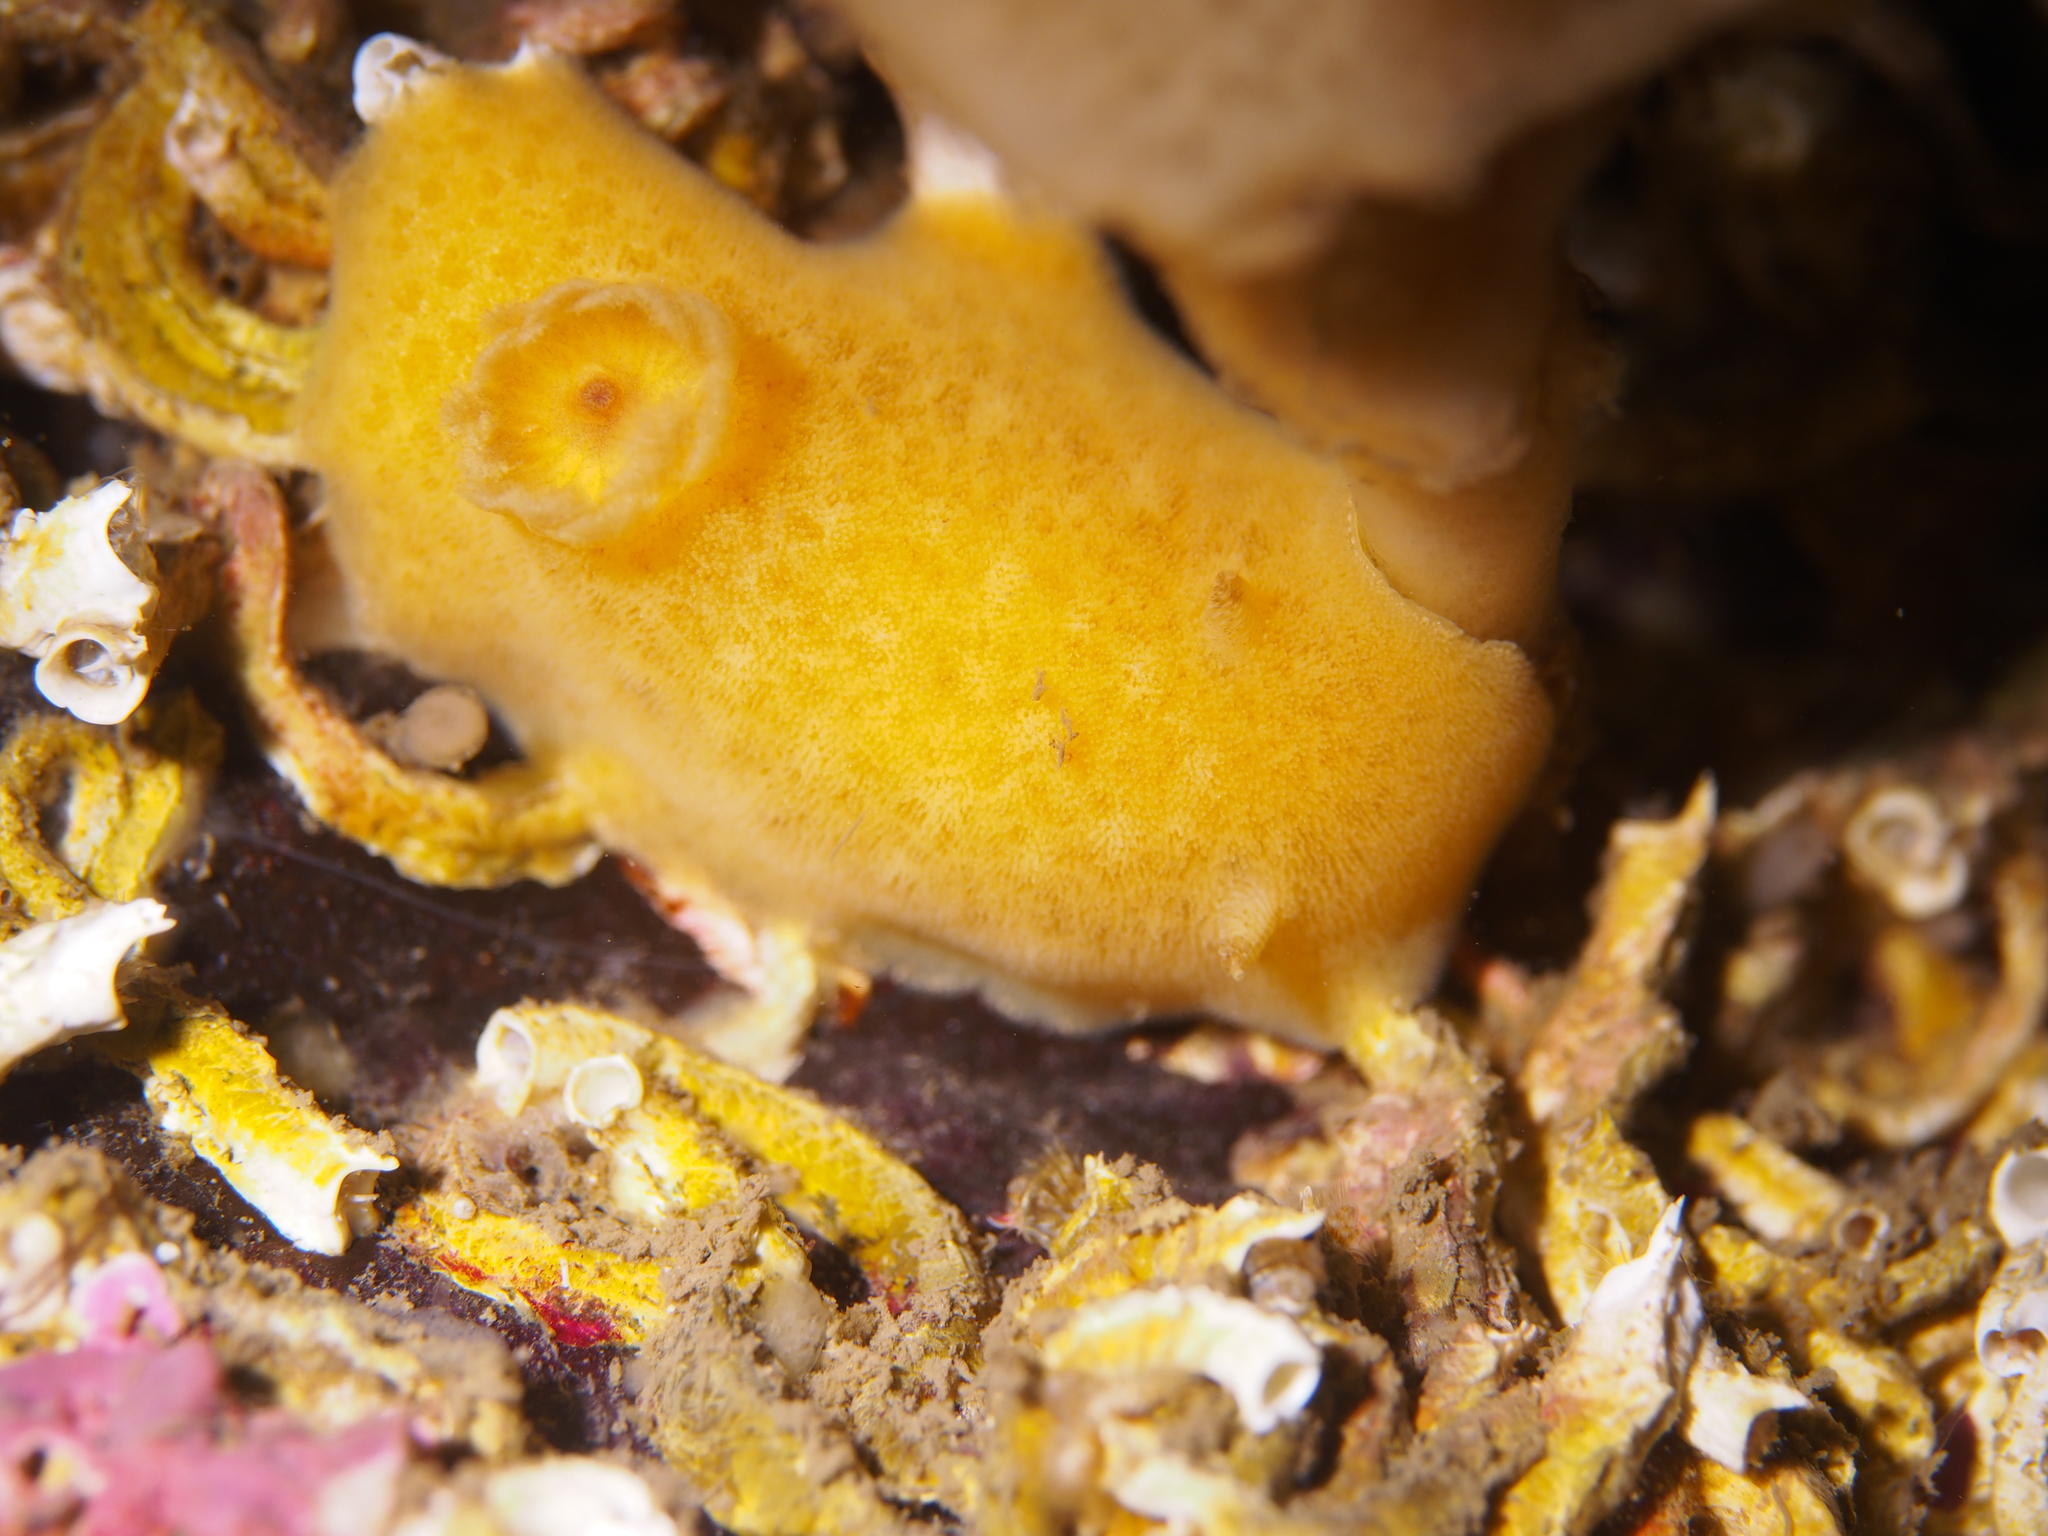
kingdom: Animalia
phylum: Mollusca
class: Gastropoda
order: Nudibranchia
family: Discodorididae
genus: Jorunna
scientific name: Jorunna tomentosa
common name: Grey sea slug
